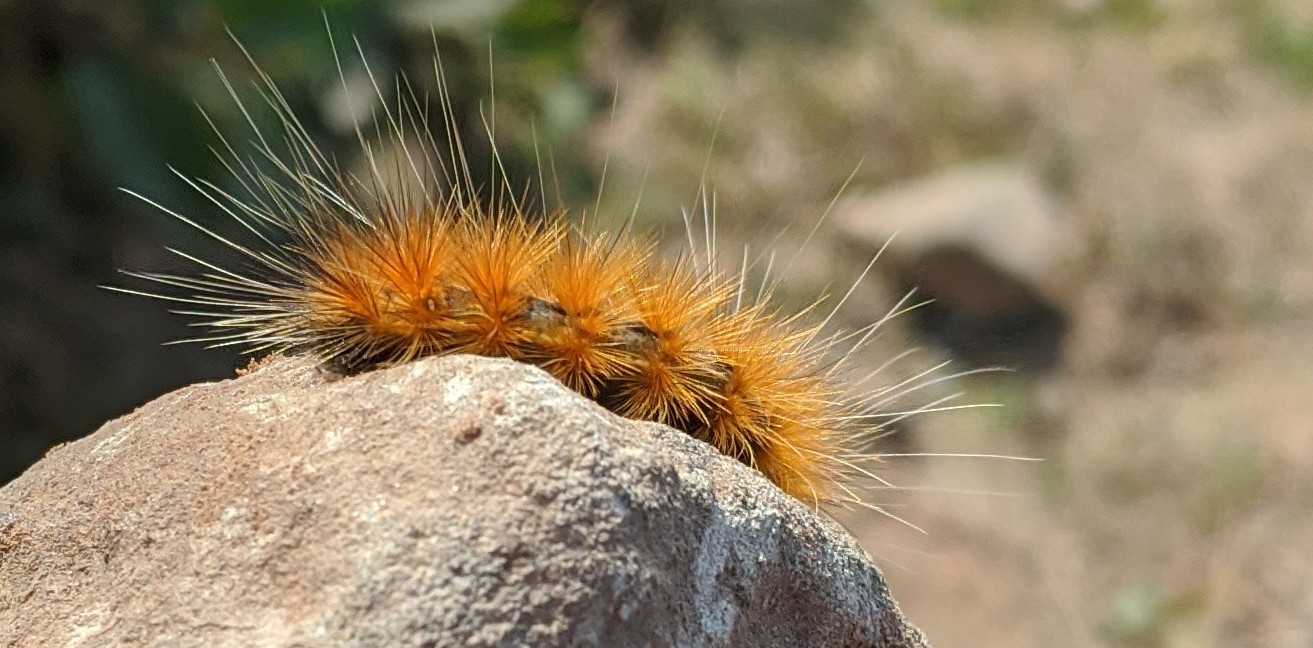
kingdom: Animalia
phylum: Arthropoda
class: Insecta
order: Lepidoptera
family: Erebidae
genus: Spilosoma
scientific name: Spilosoma virginica
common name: Virginia tiger moth
